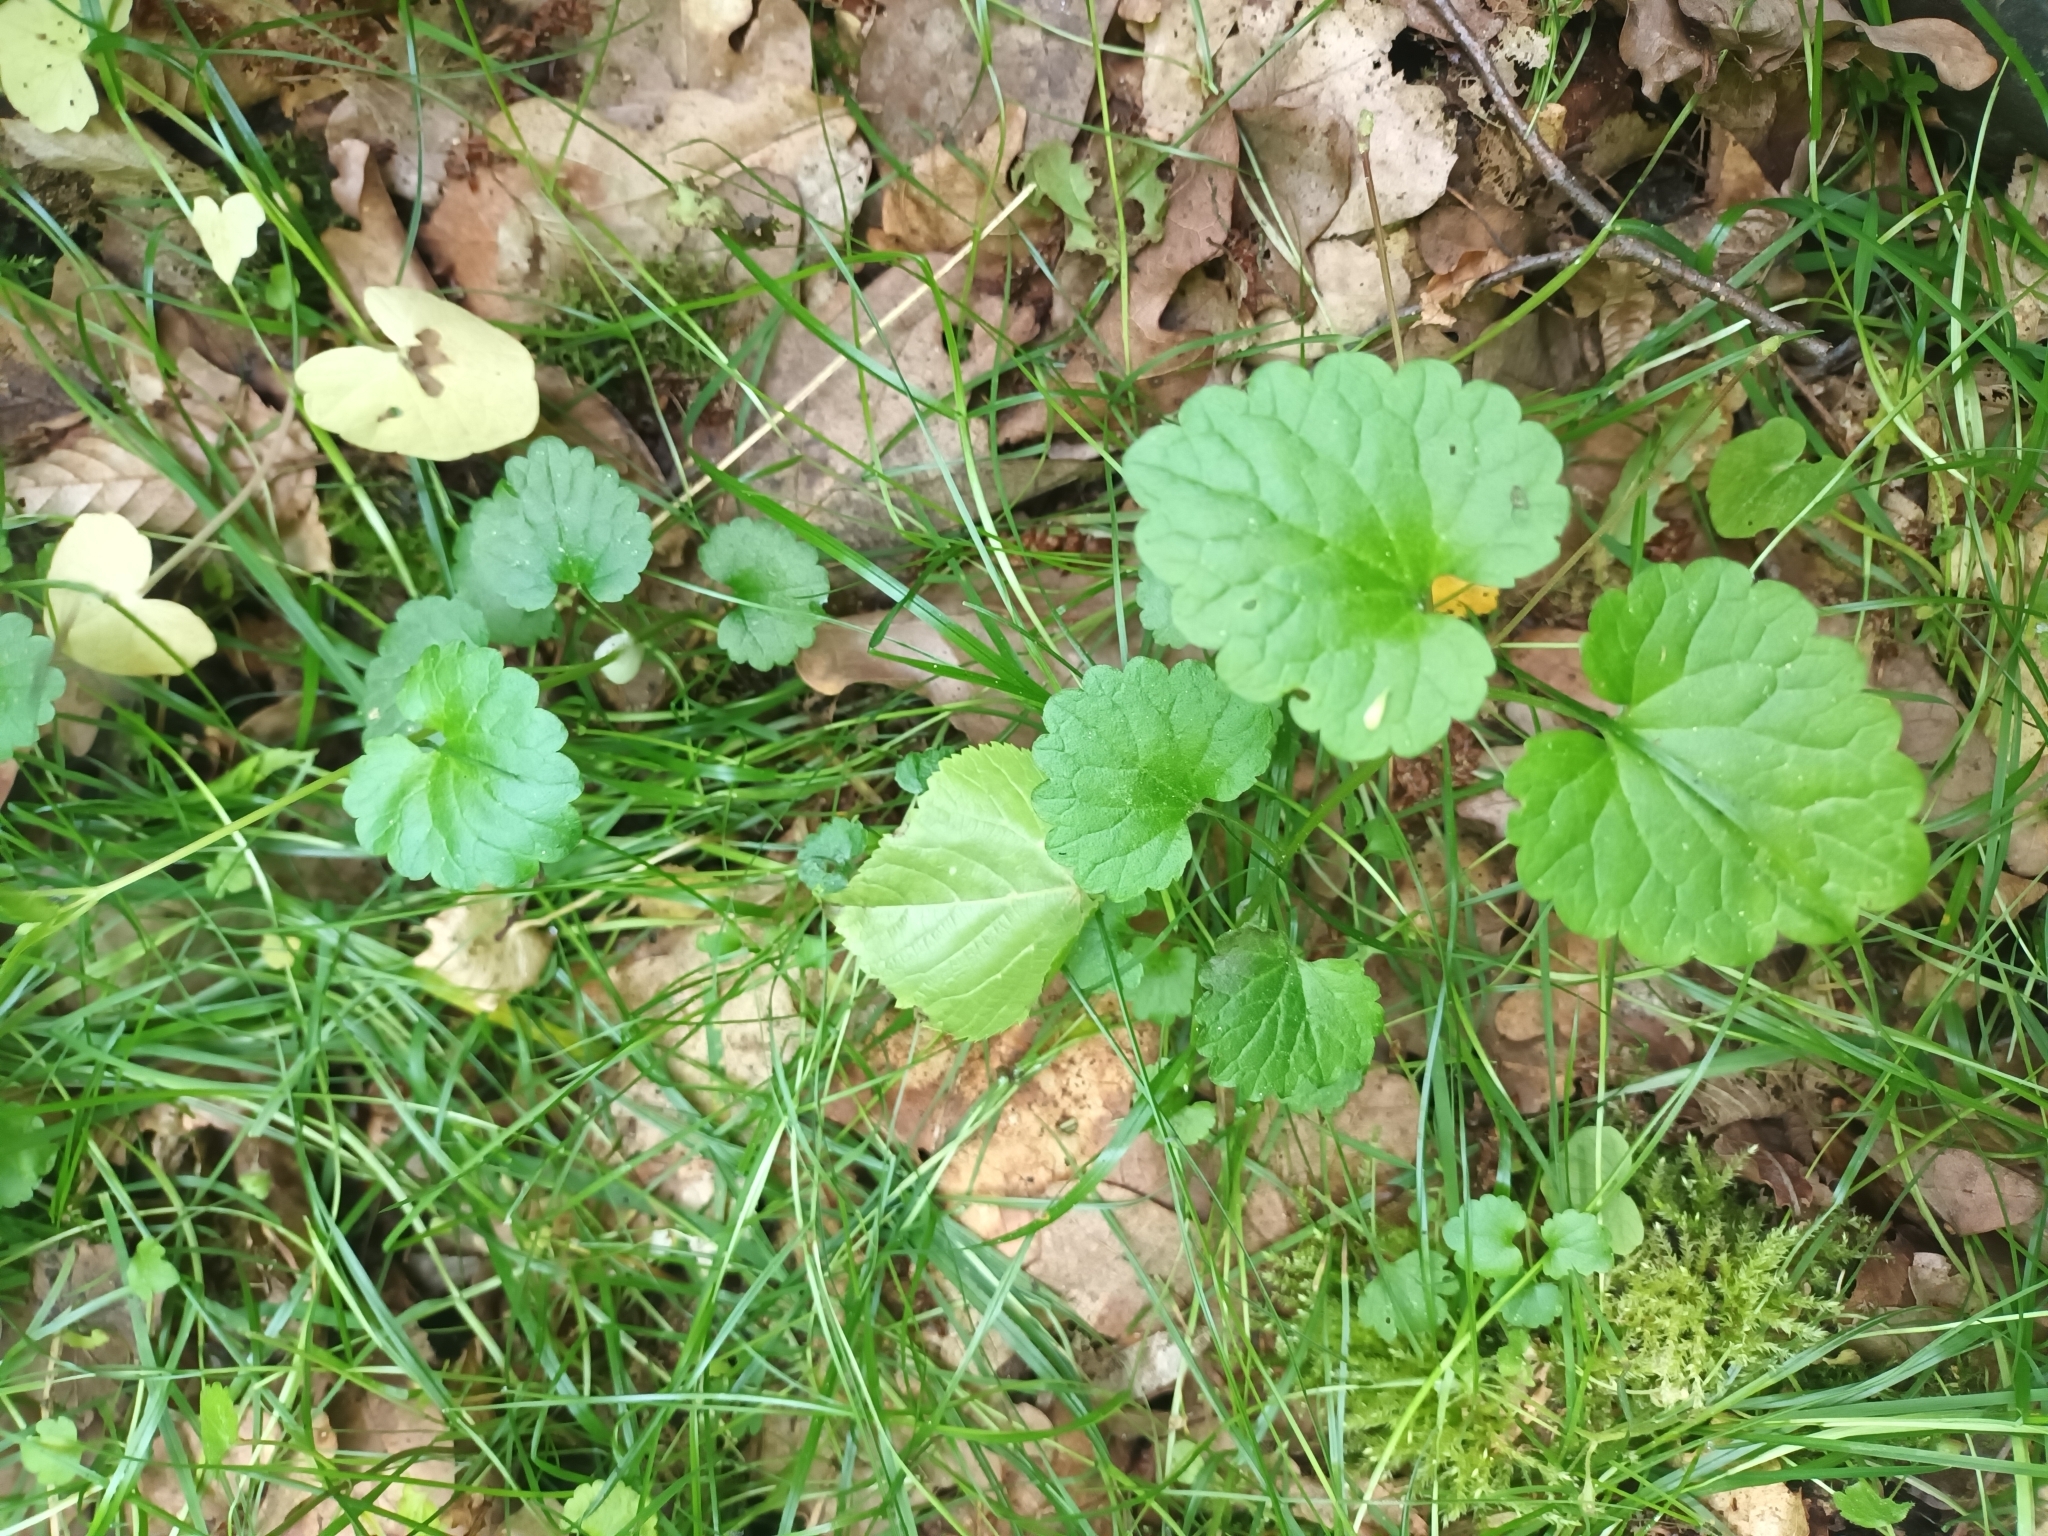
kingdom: Plantae
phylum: Tracheophyta
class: Magnoliopsida
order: Lamiales
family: Lamiaceae
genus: Glechoma
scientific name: Glechoma hederacea
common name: Ground ivy
